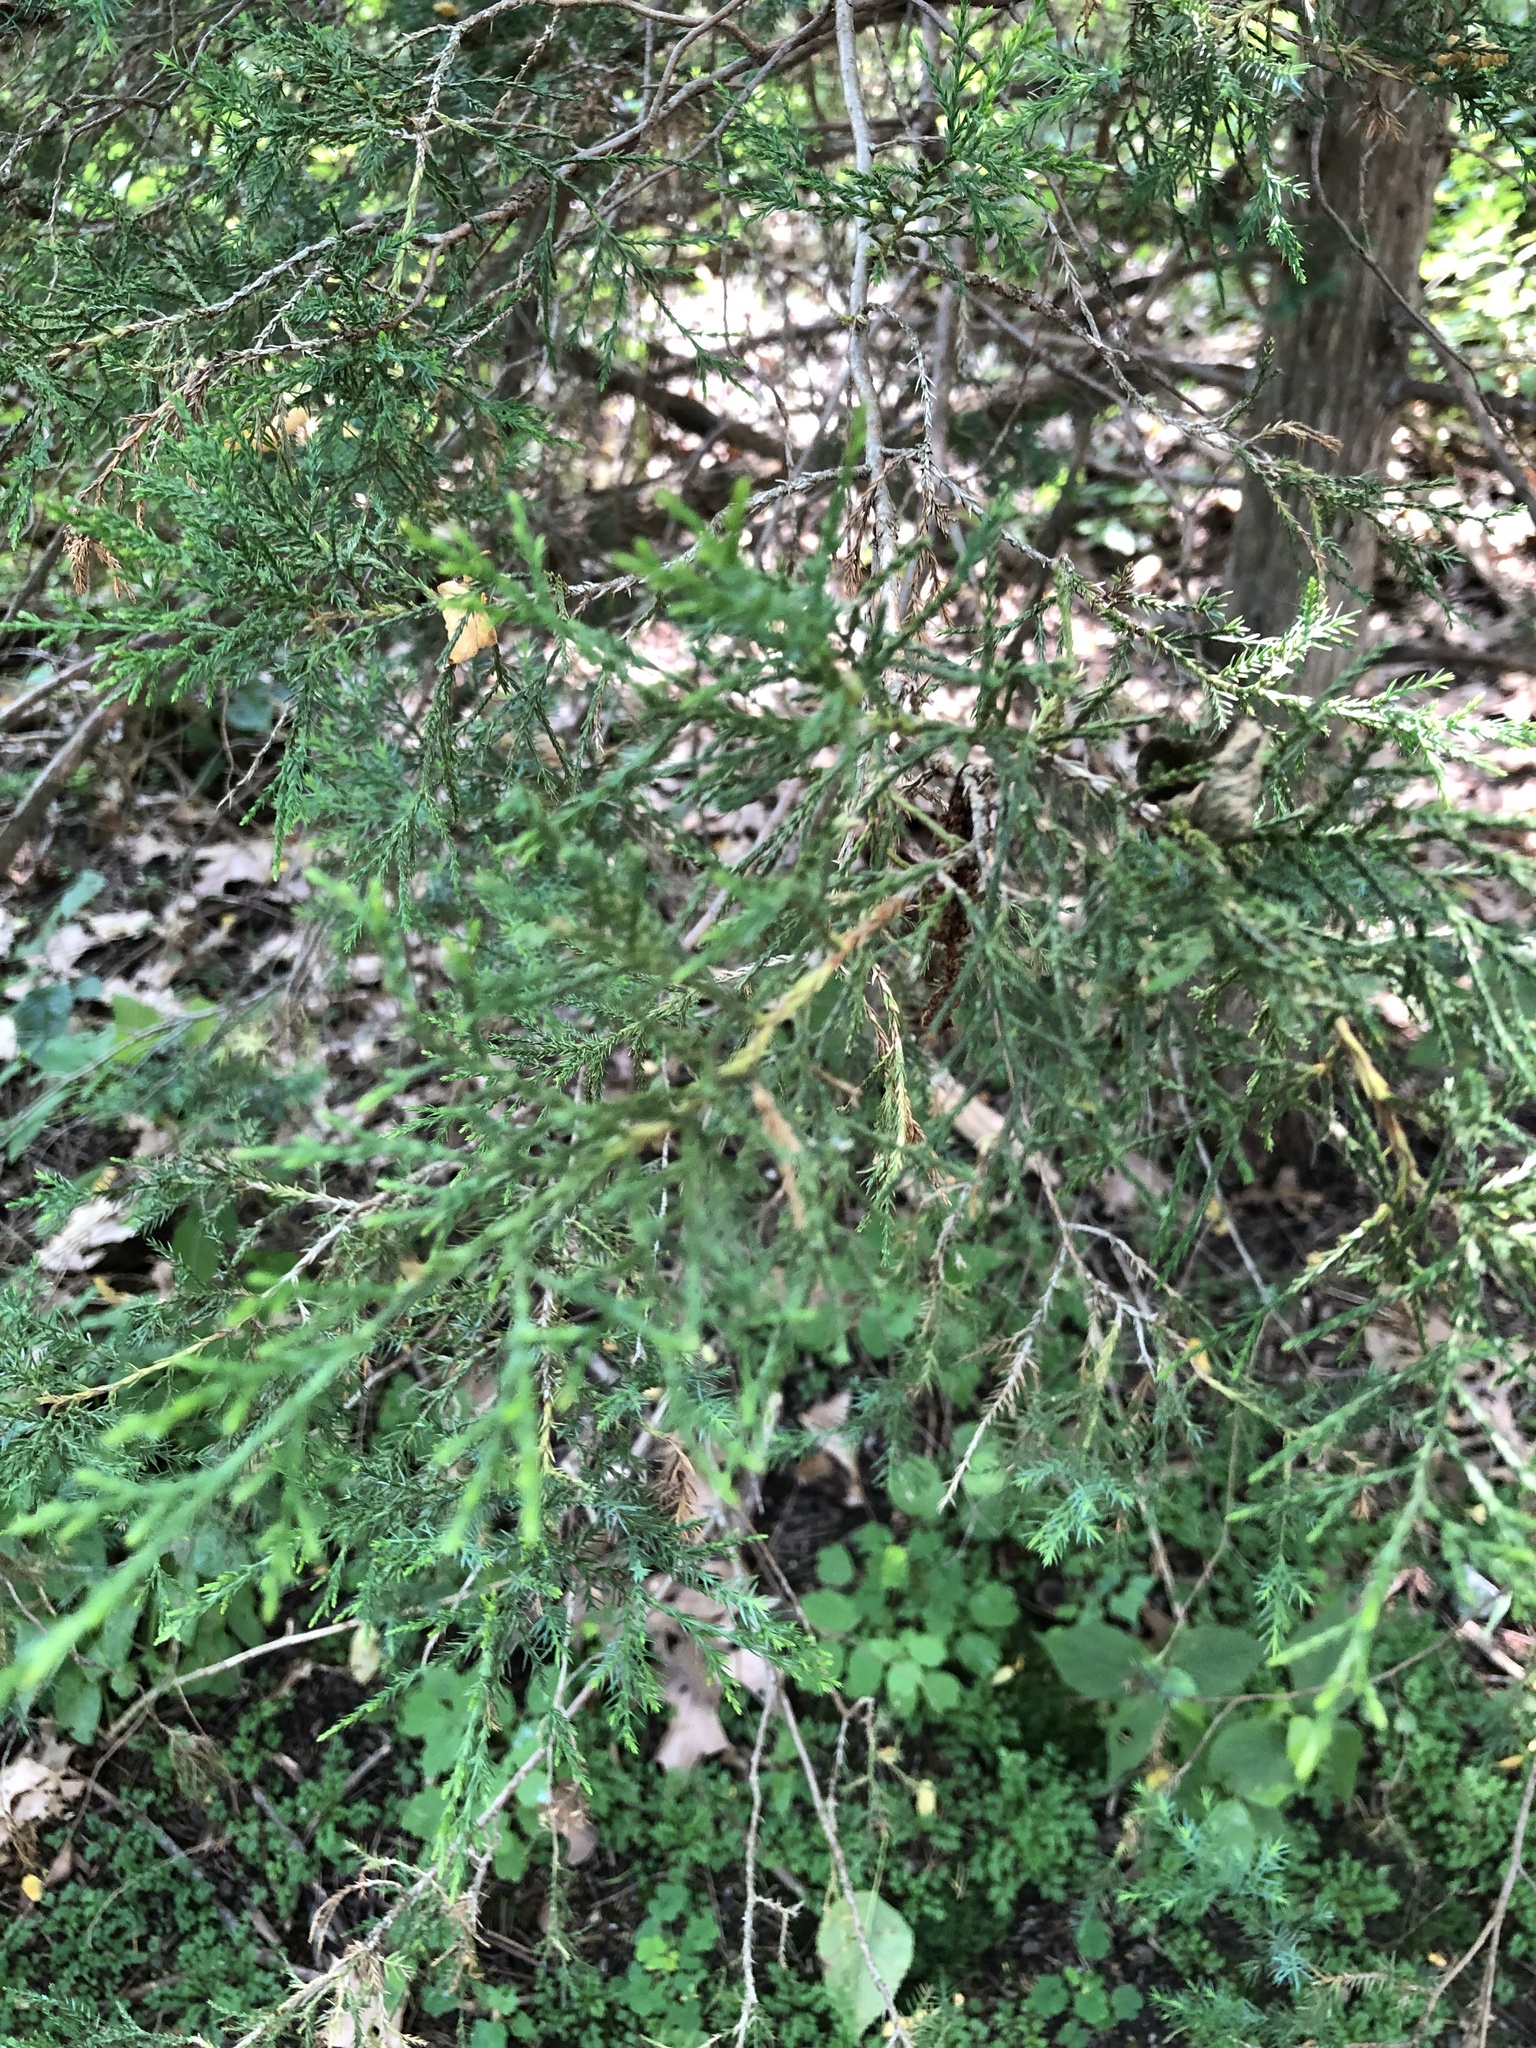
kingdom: Plantae
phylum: Tracheophyta
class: Pinopsida
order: Pinales
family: Cupressaceae
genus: Juniperus
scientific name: Juniperus virginiana
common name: Red juniper
